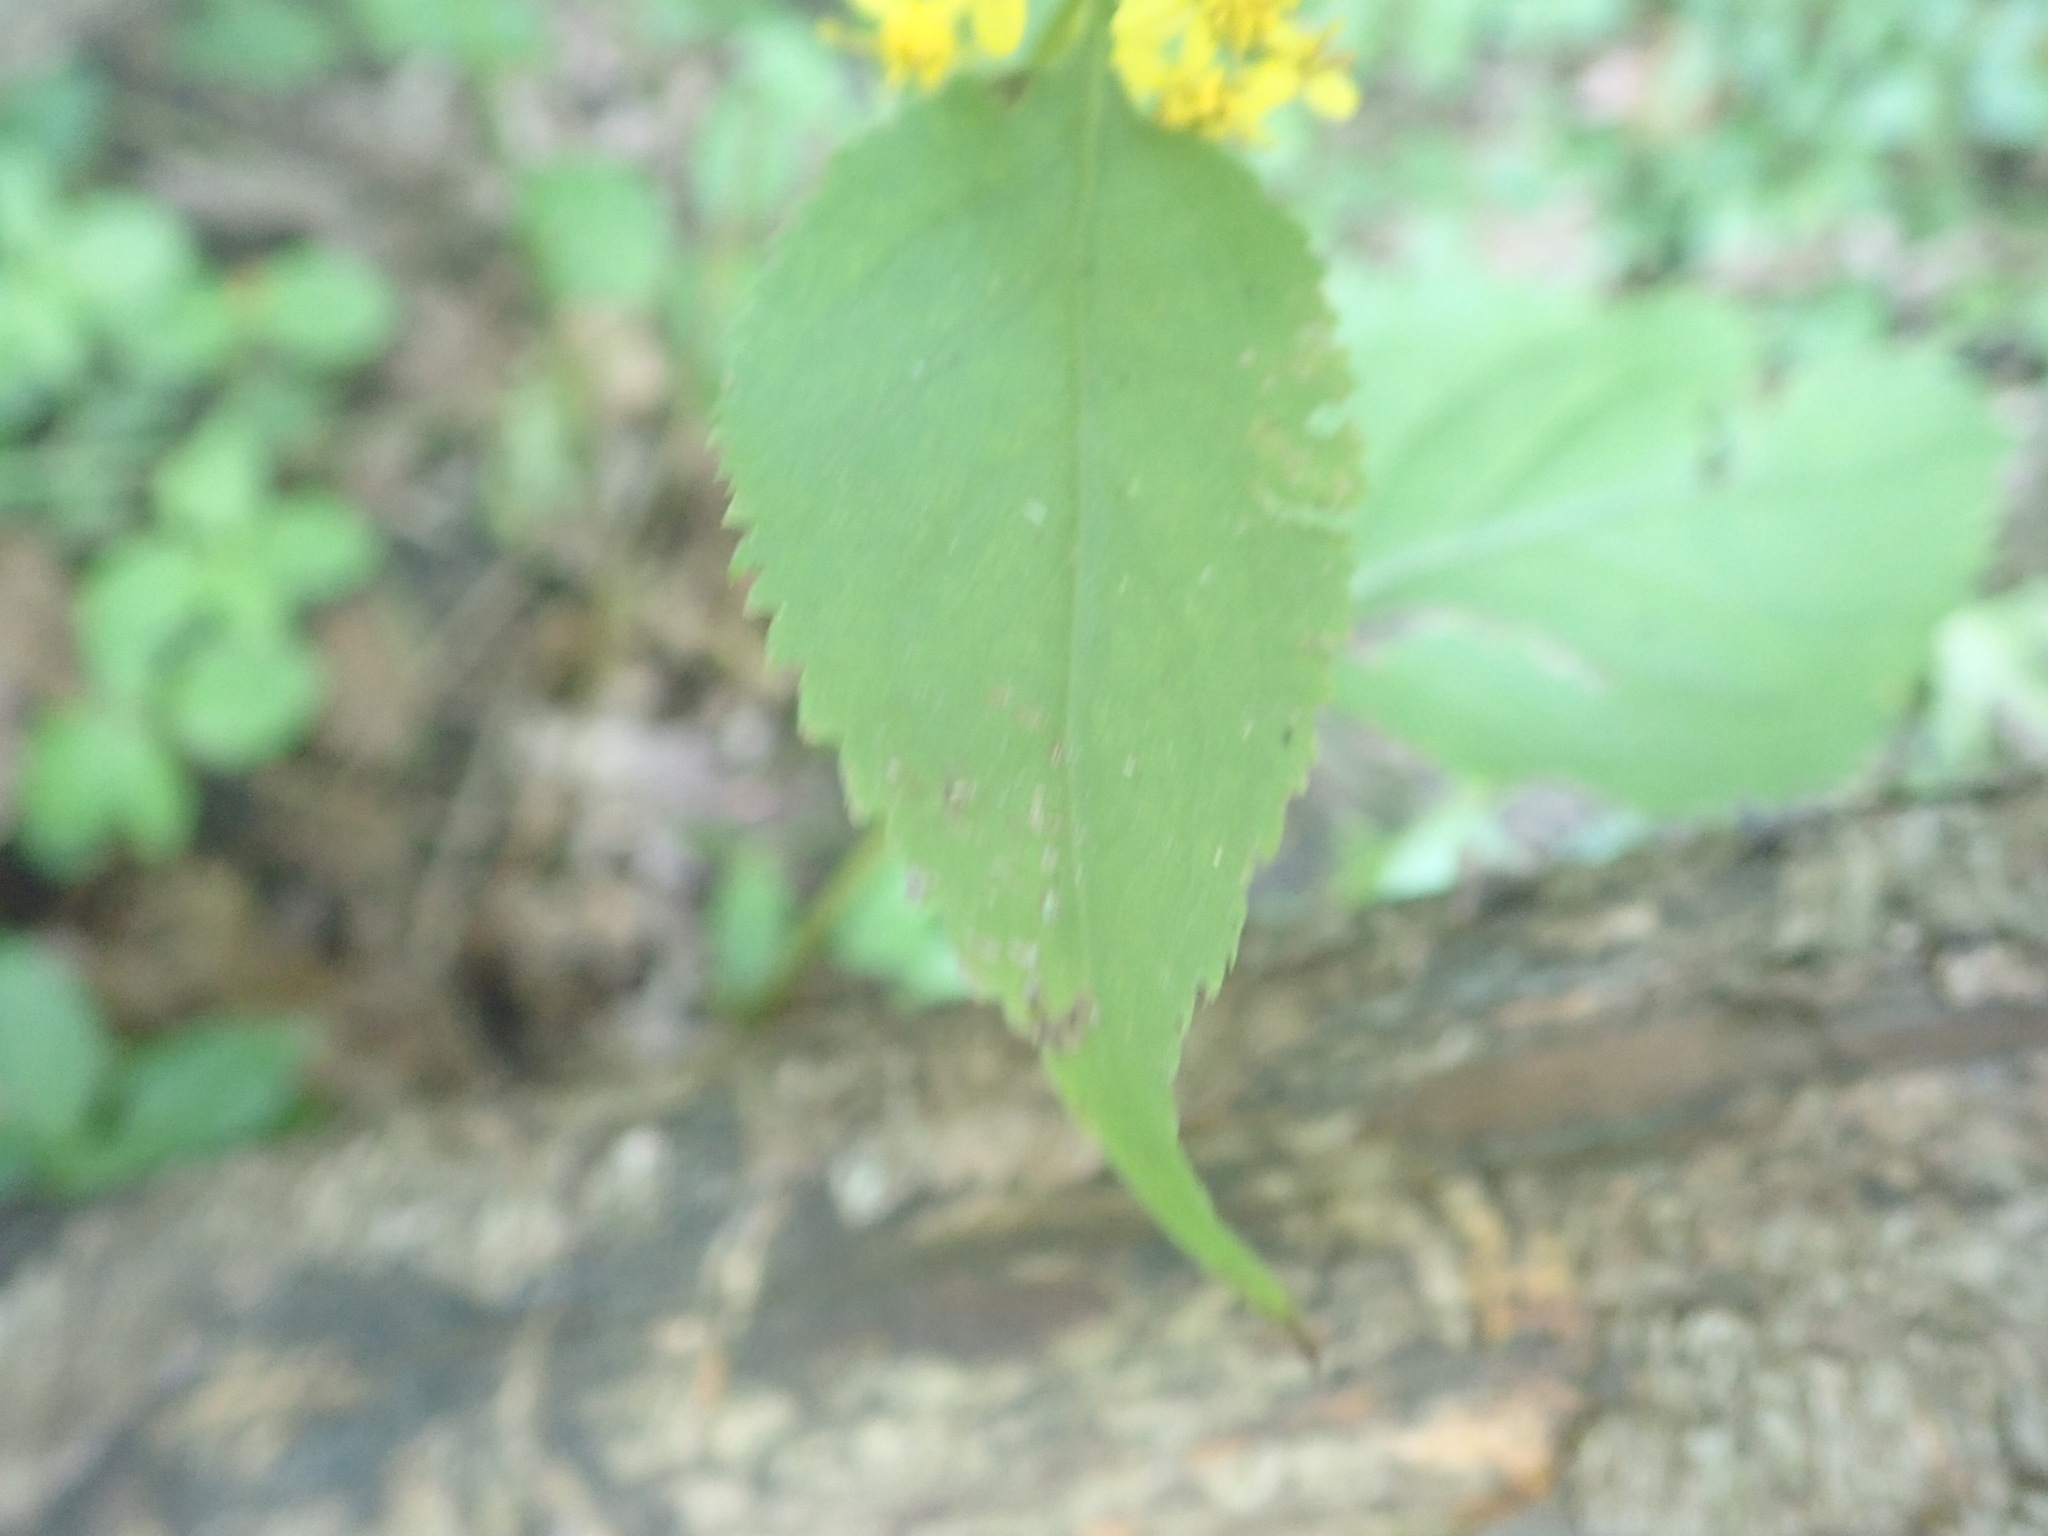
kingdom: Plantae
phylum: Tracheophyta
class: Magnoliopsida
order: Asterales
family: Asteraceae
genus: Solidago
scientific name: Solidago flexicaulis
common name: Zig-zag goldenrod
